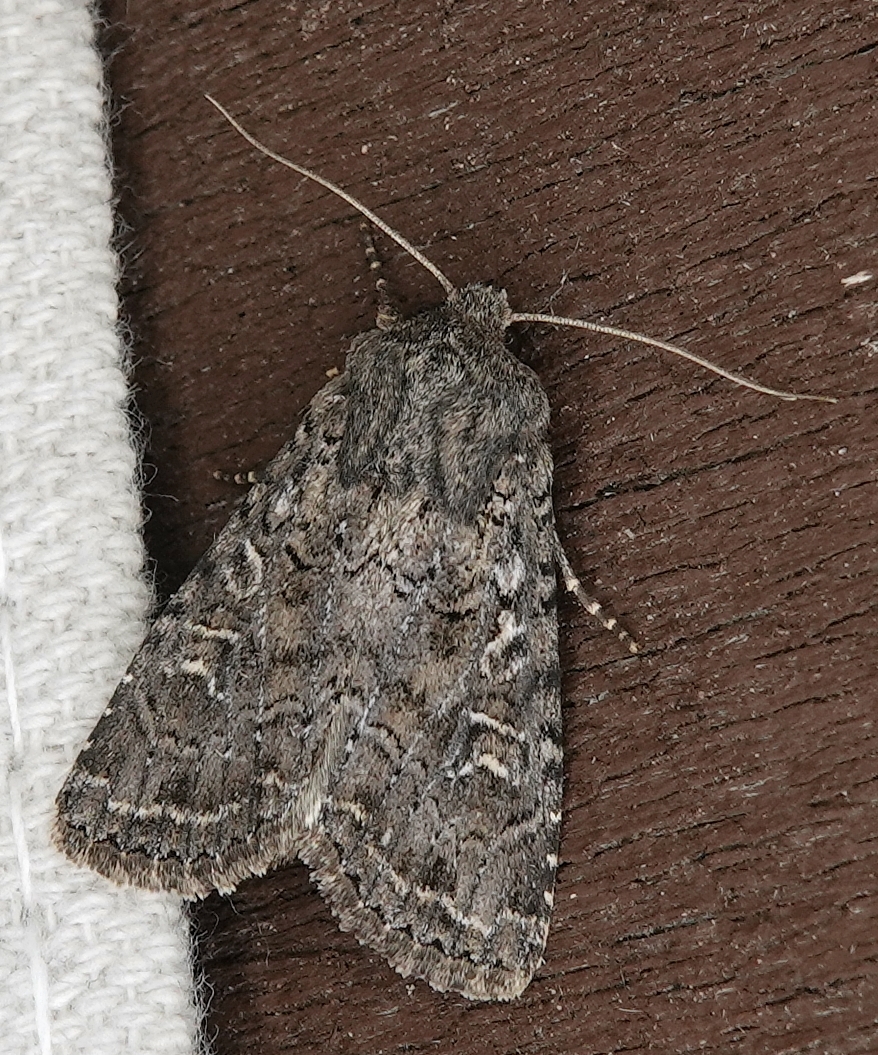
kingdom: Animalia
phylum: Arthropoda
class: Insecta
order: Lepidoptera
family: Noctuidae
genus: Apamea
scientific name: Apamea devastator
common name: Glassy cutworm
